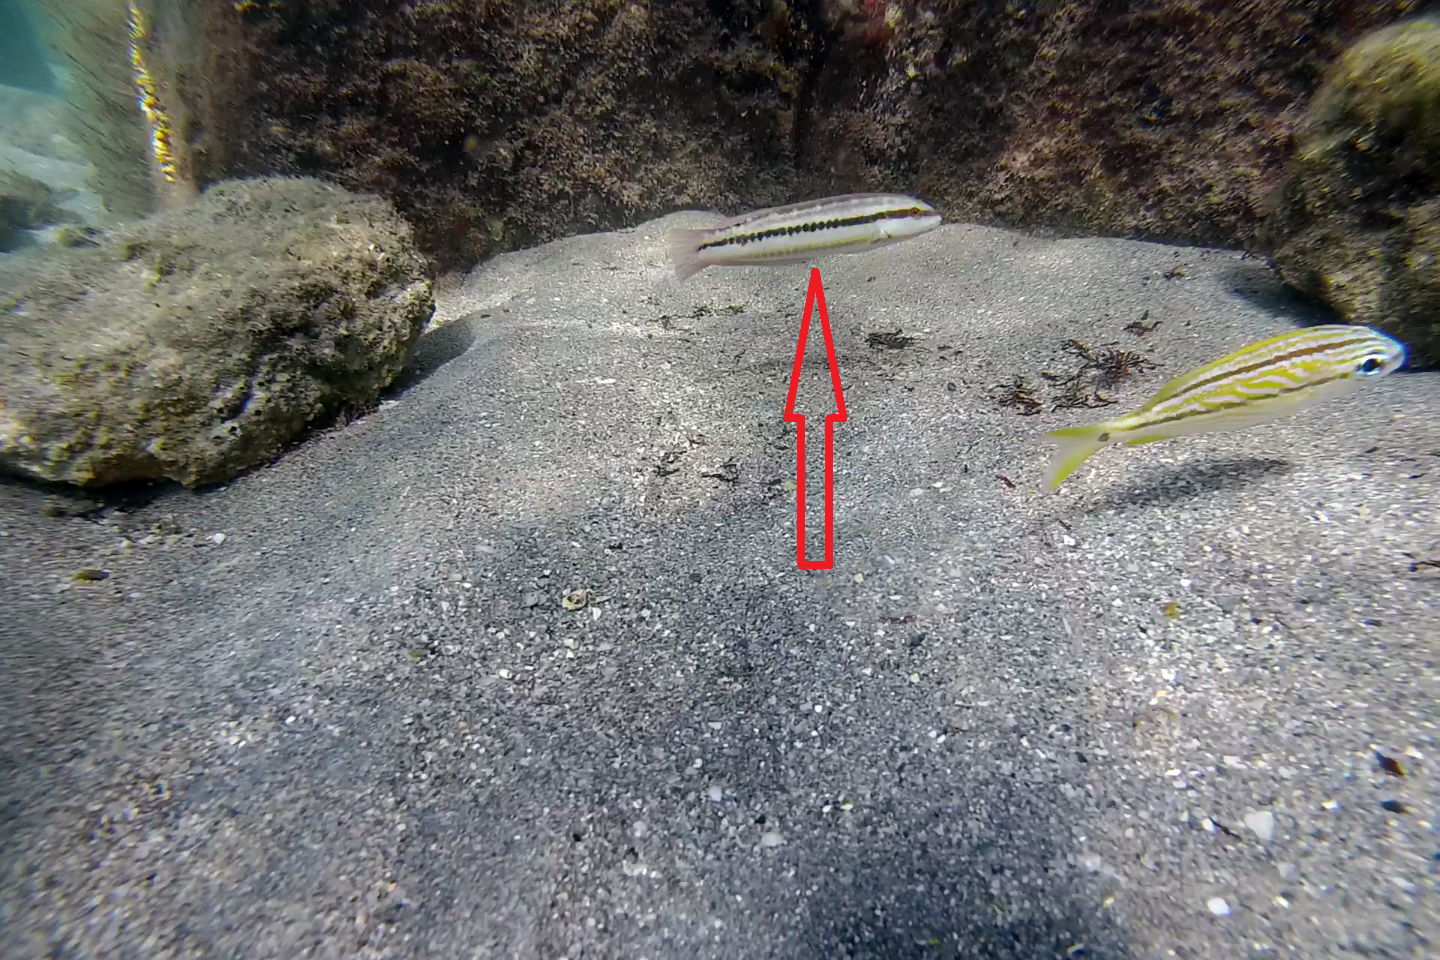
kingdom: Animalia
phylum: Chordata
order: Perciformes
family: Labridae
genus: Halichoeres
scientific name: Halichoeres bivittatus
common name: Slippery dick
